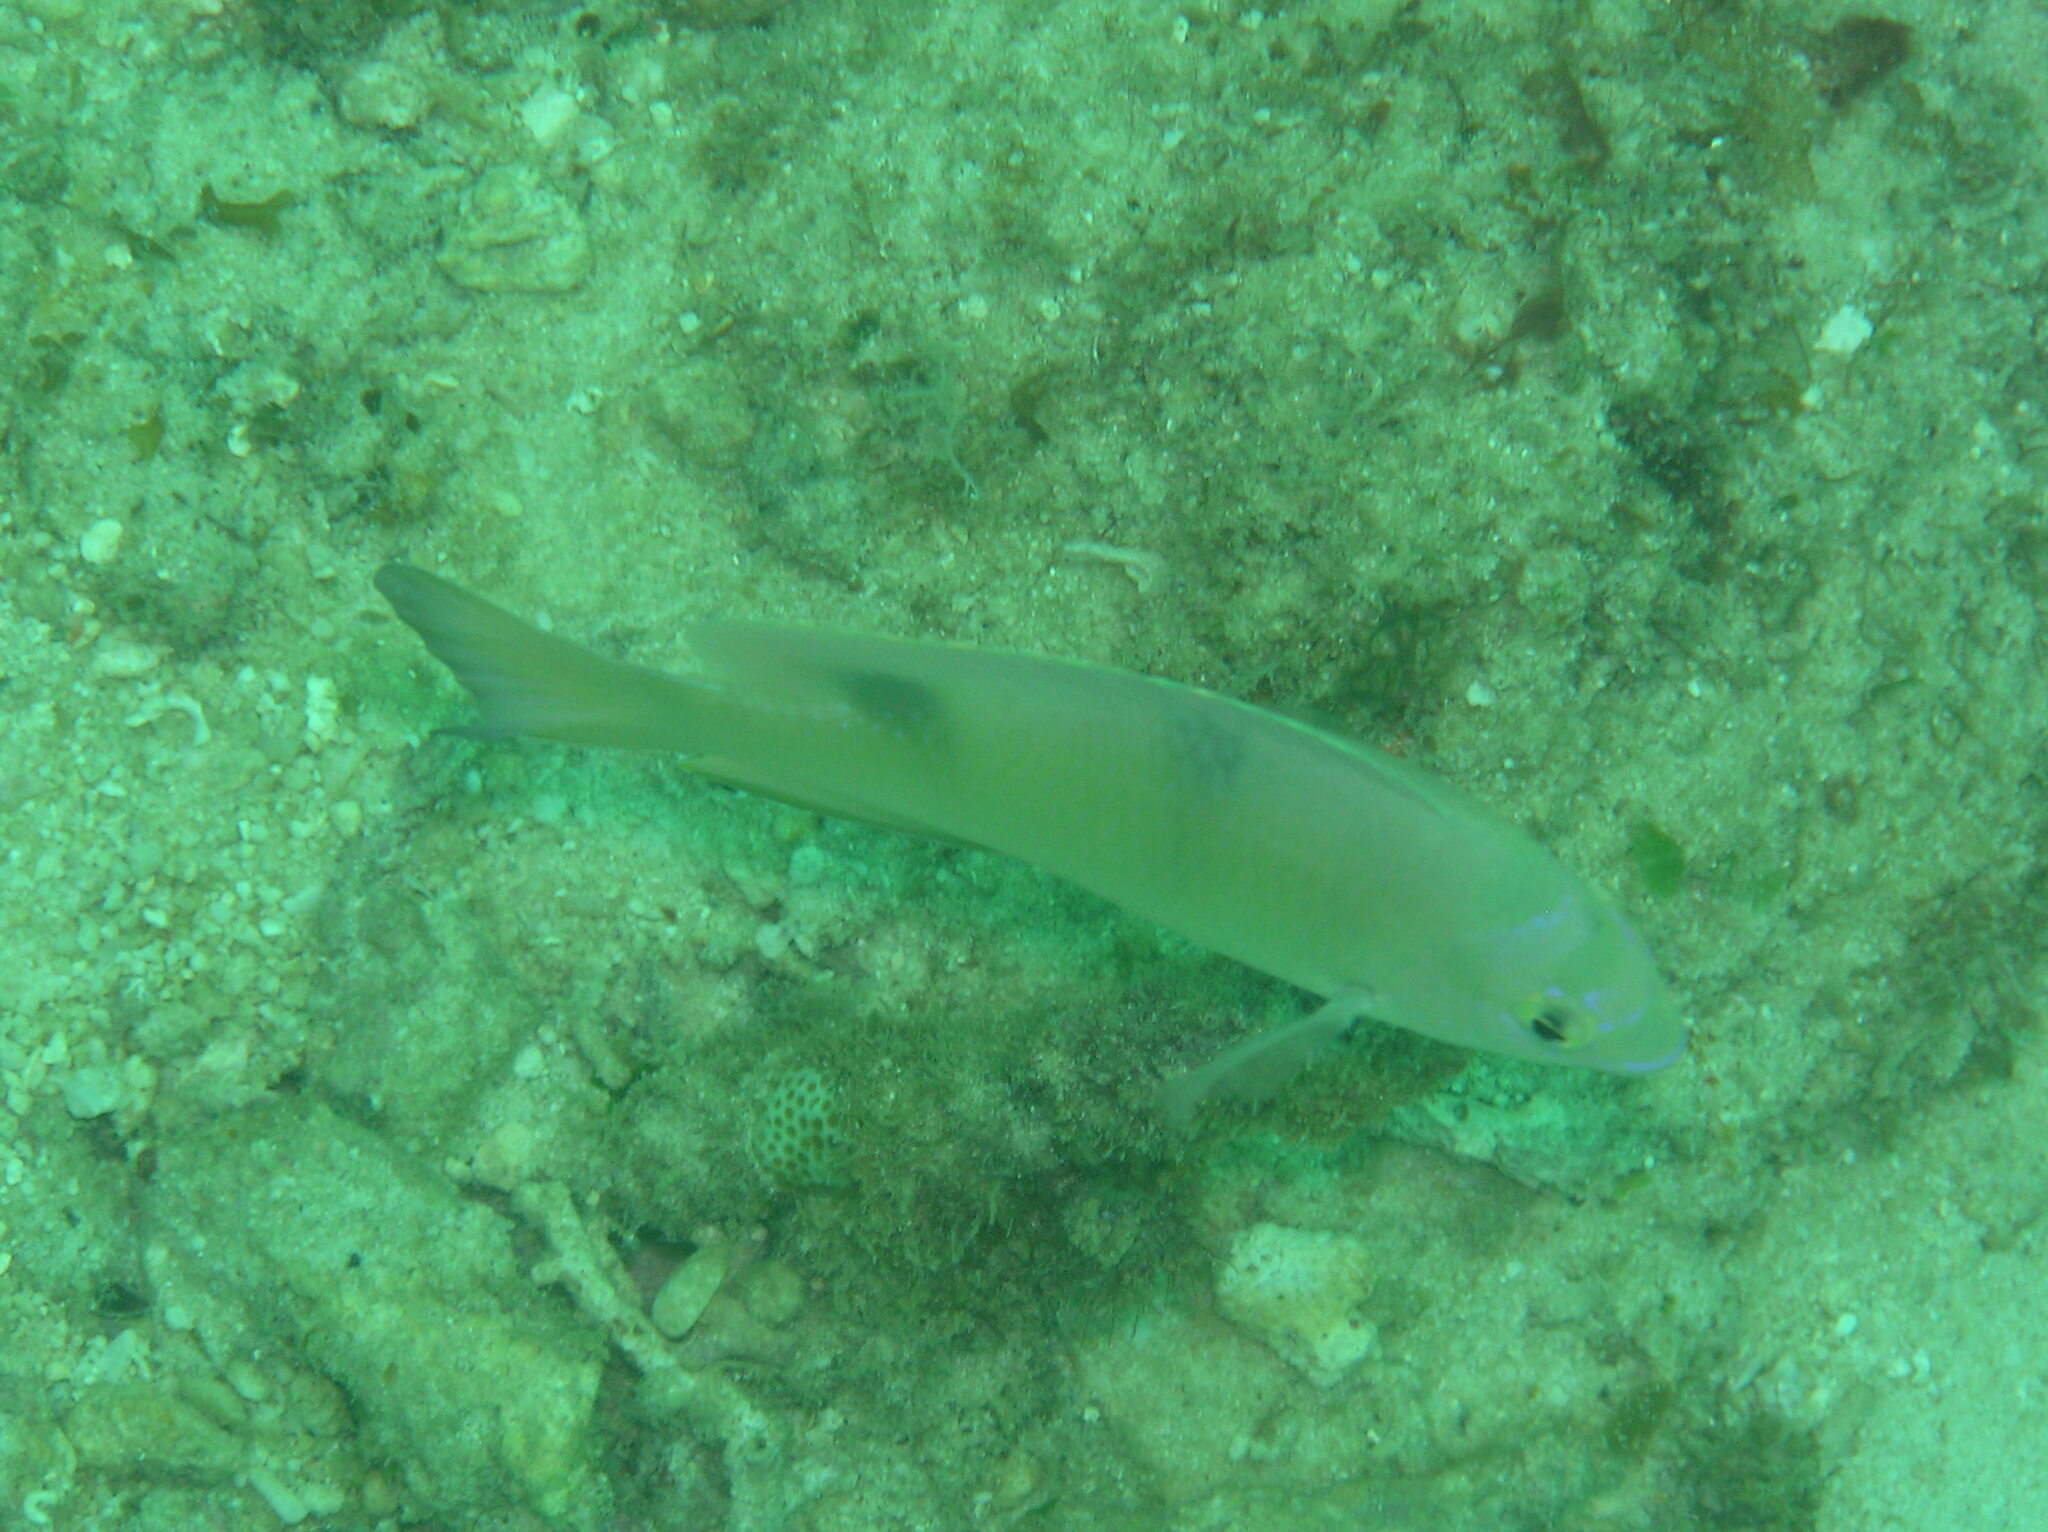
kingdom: Animalia
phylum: Chordata
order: Perciformes
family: Pomacentridae
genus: Dischistodus
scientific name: Dischistodus perspicillatus
